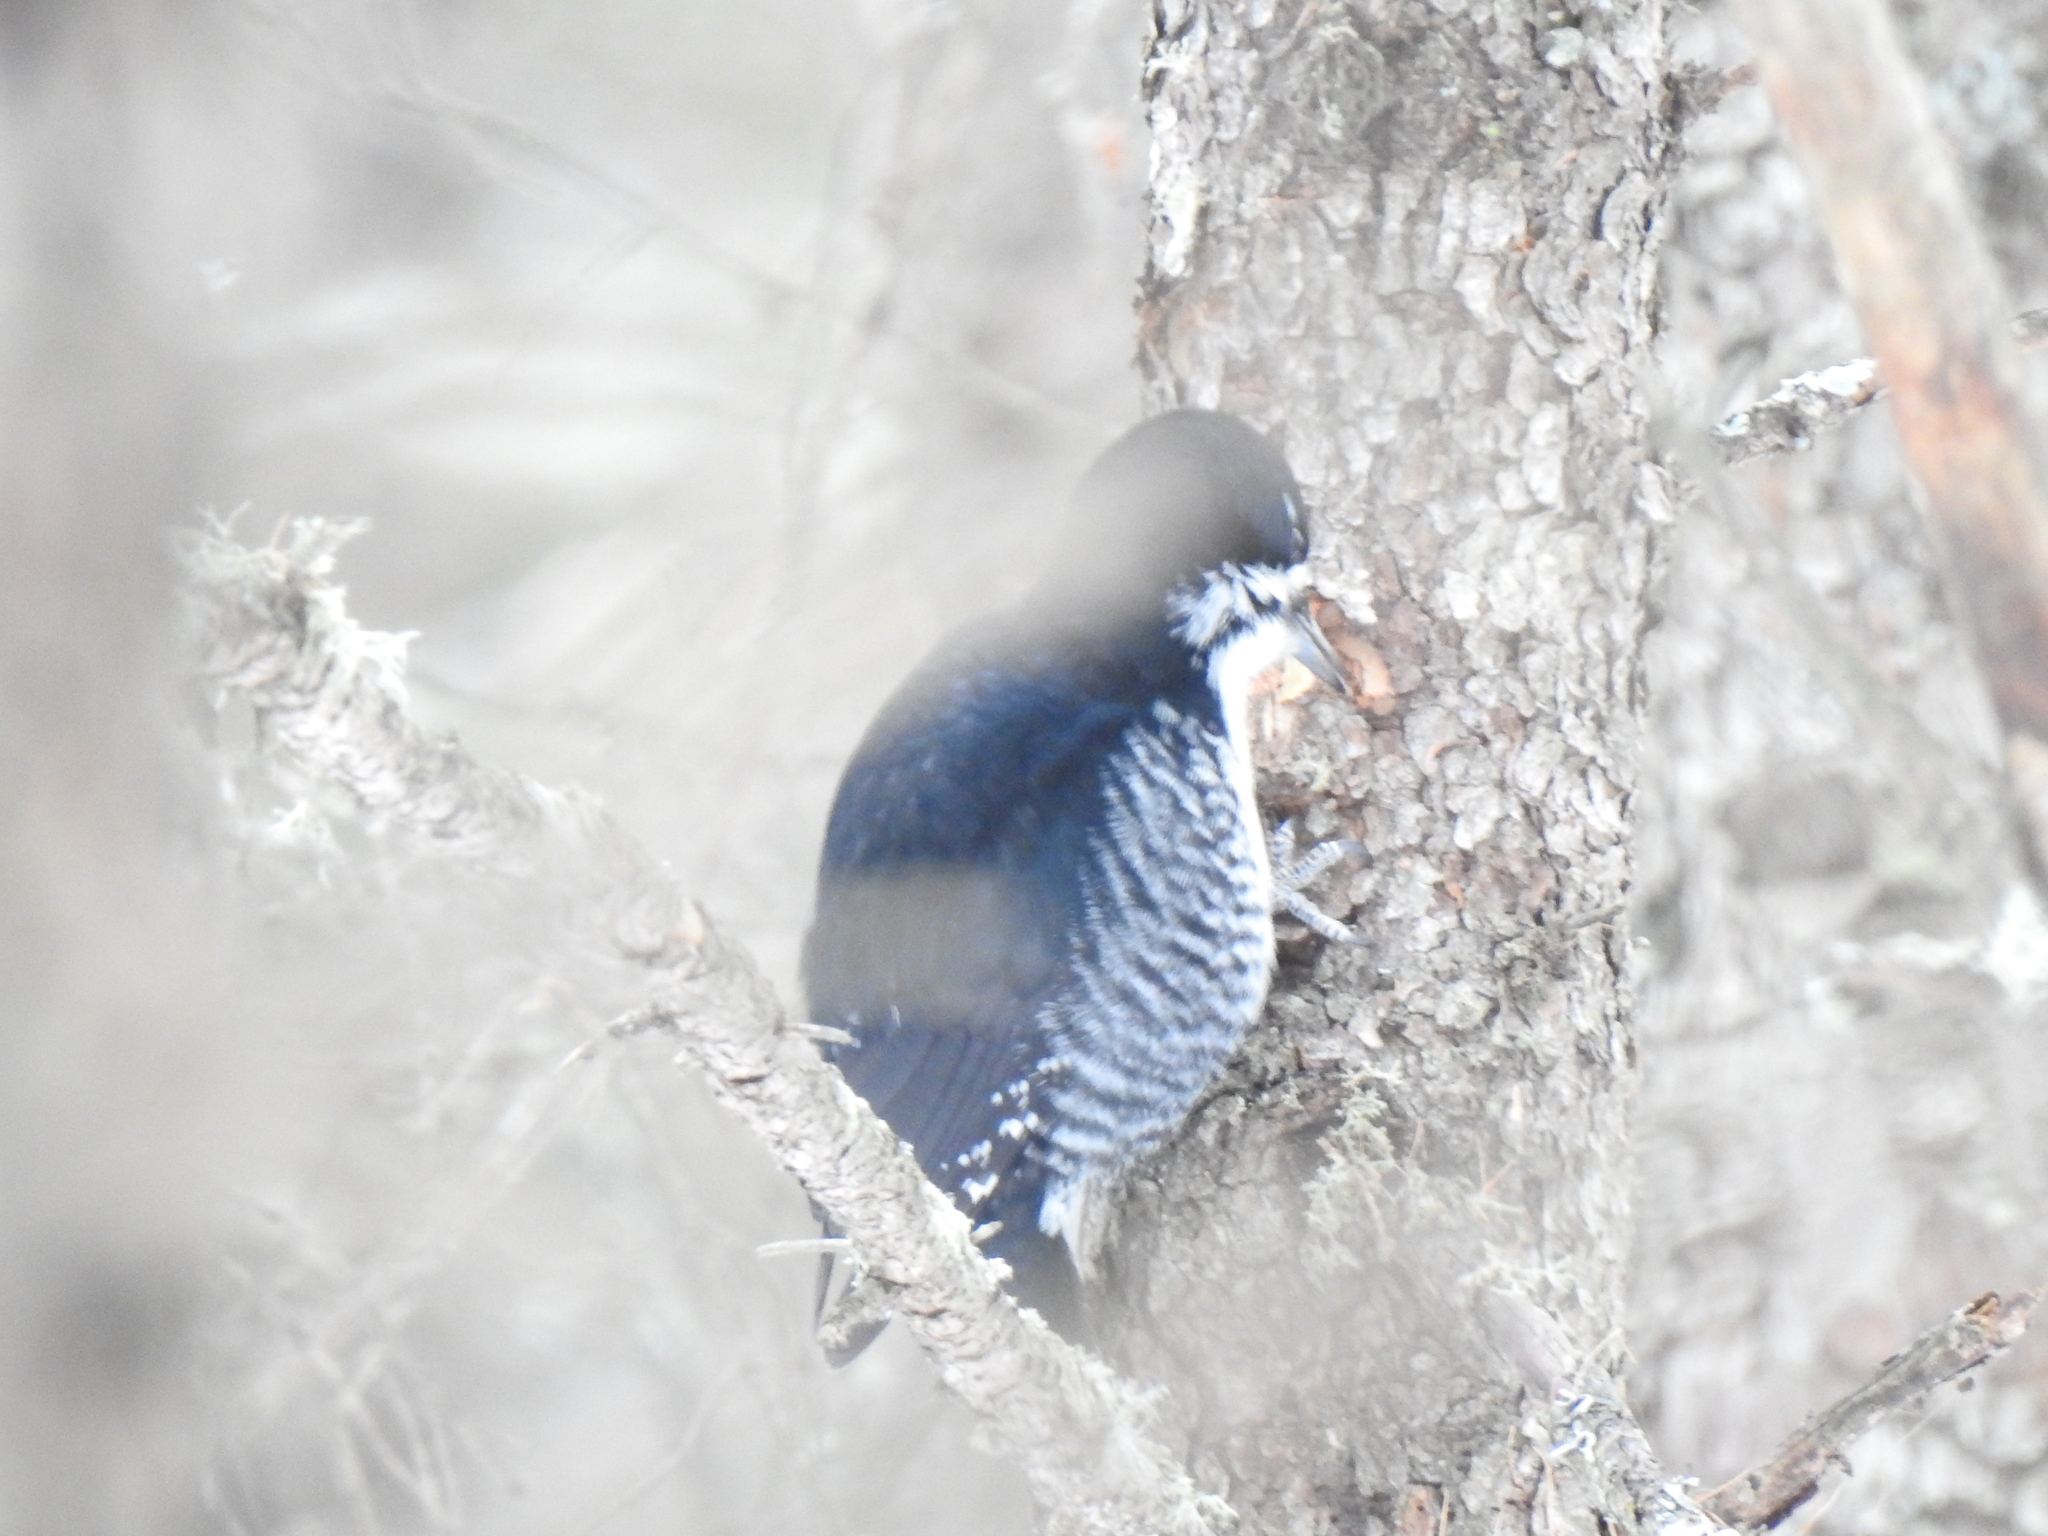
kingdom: Animalia
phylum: Chordata
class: Aves
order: Piciformes
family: Picidae
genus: Picoides
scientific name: Picoides arcticus
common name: Black-backed woodpecker
